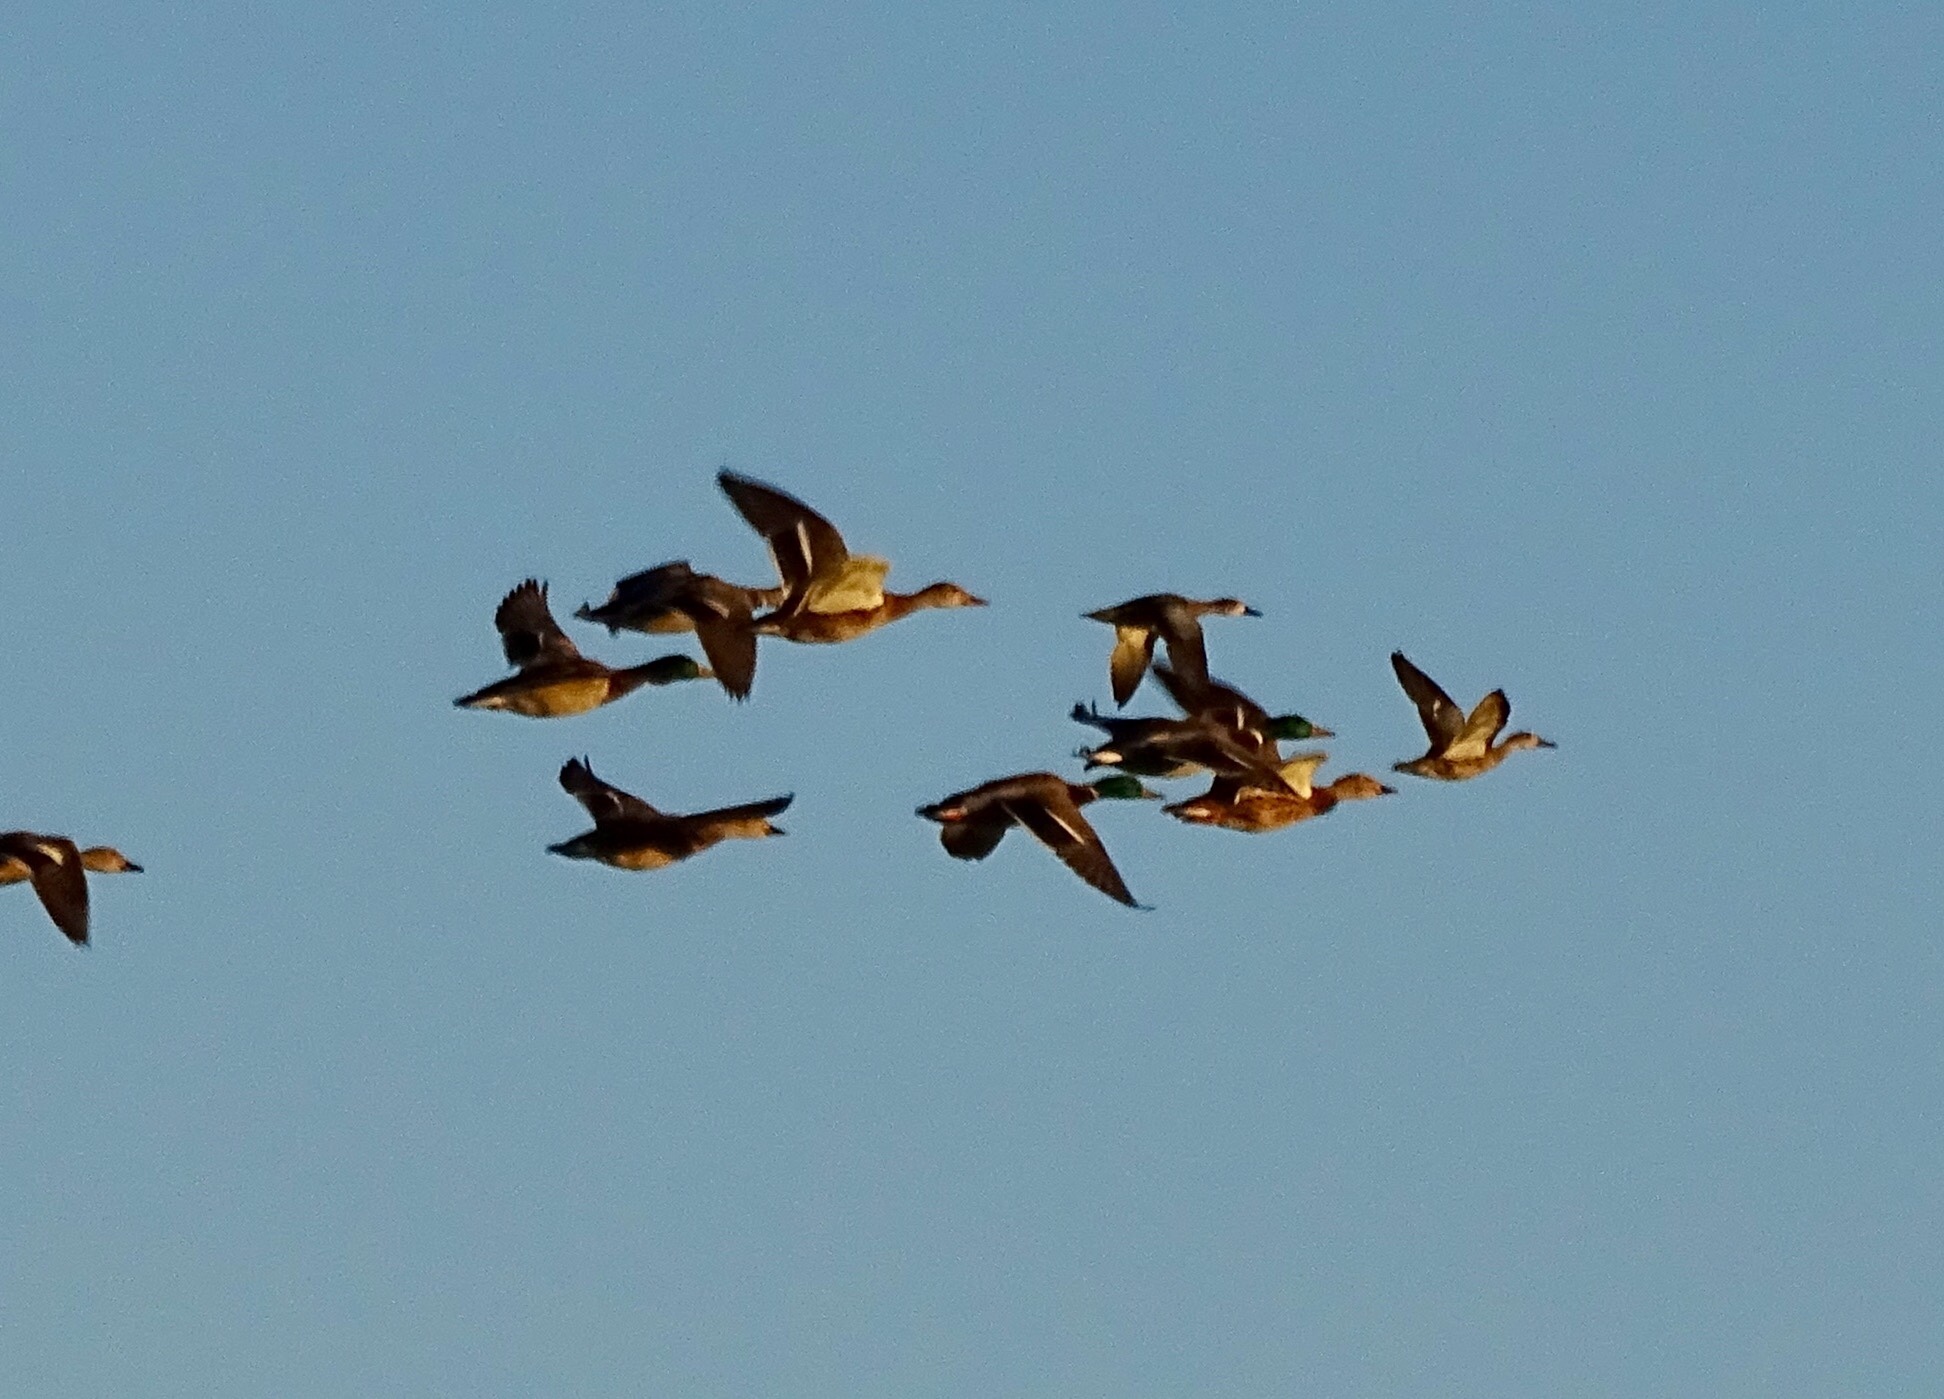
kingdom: Animalia
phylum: Chordata
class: Aves
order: Anseriformes
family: Anatidae
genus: Anas
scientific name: Anas platyrhynchos
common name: Mallard
